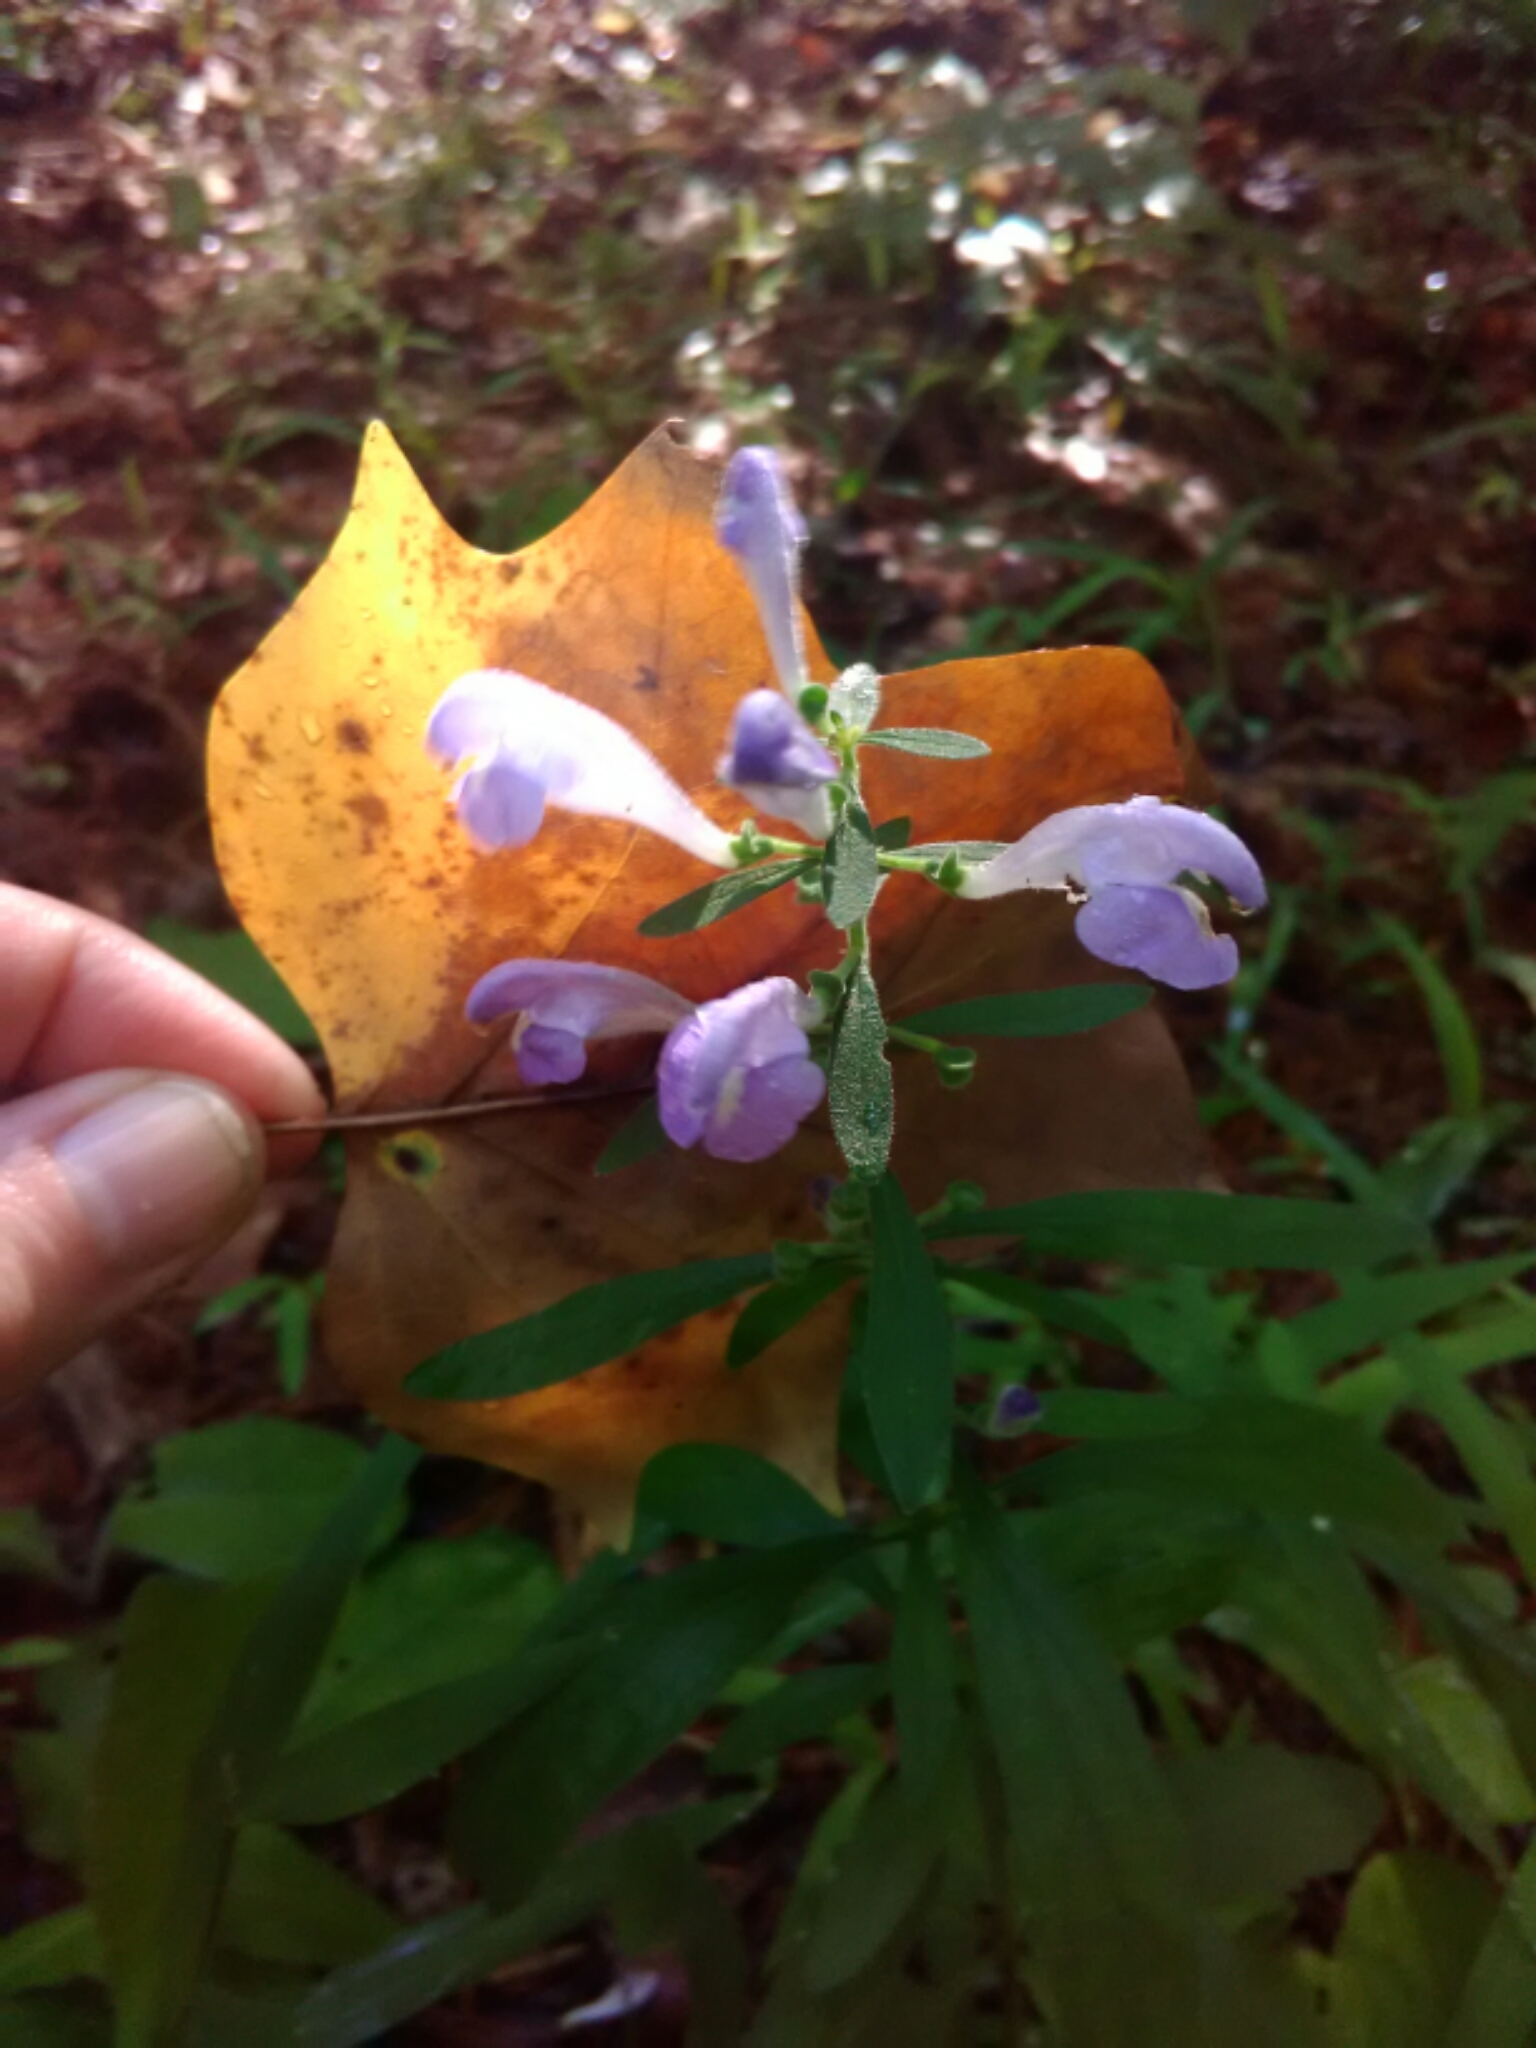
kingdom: Plantae
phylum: Tracheophyta
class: Magnoliopsida
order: Lamiales
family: Lamiaceae
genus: Scutellaria
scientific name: Scutellaria integrifolia
